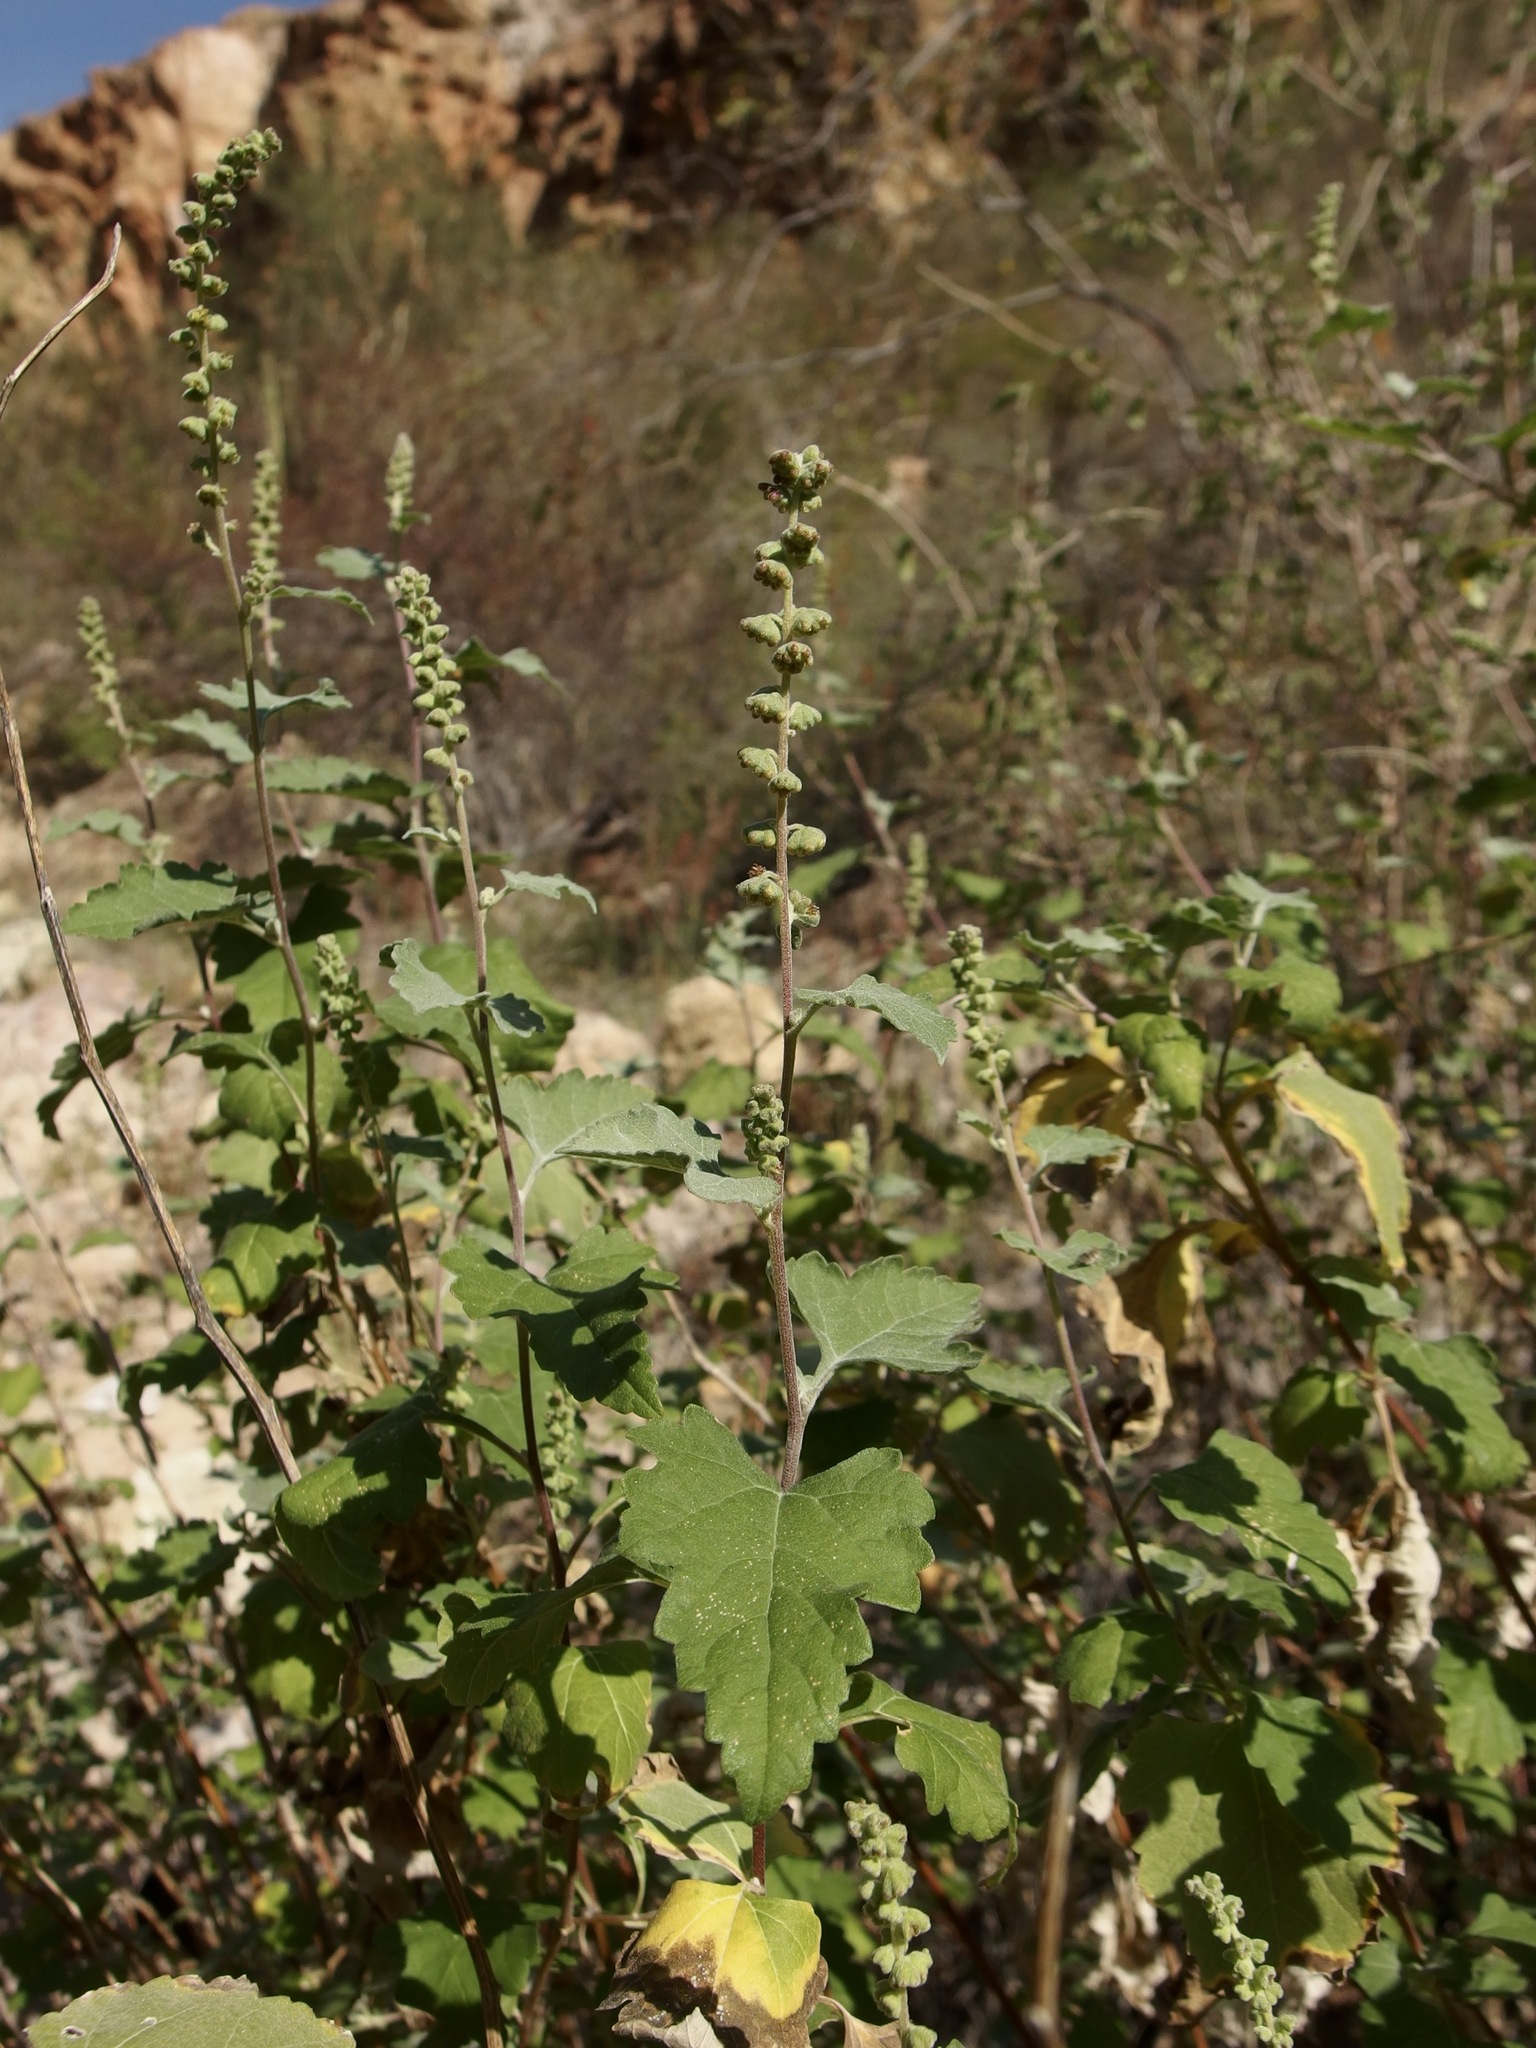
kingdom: Plantae
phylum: Tracheophyta
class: Magnoliopsida
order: Asterales
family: Asteraceae
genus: Ambrosia
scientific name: Ambrosia cordifolia
